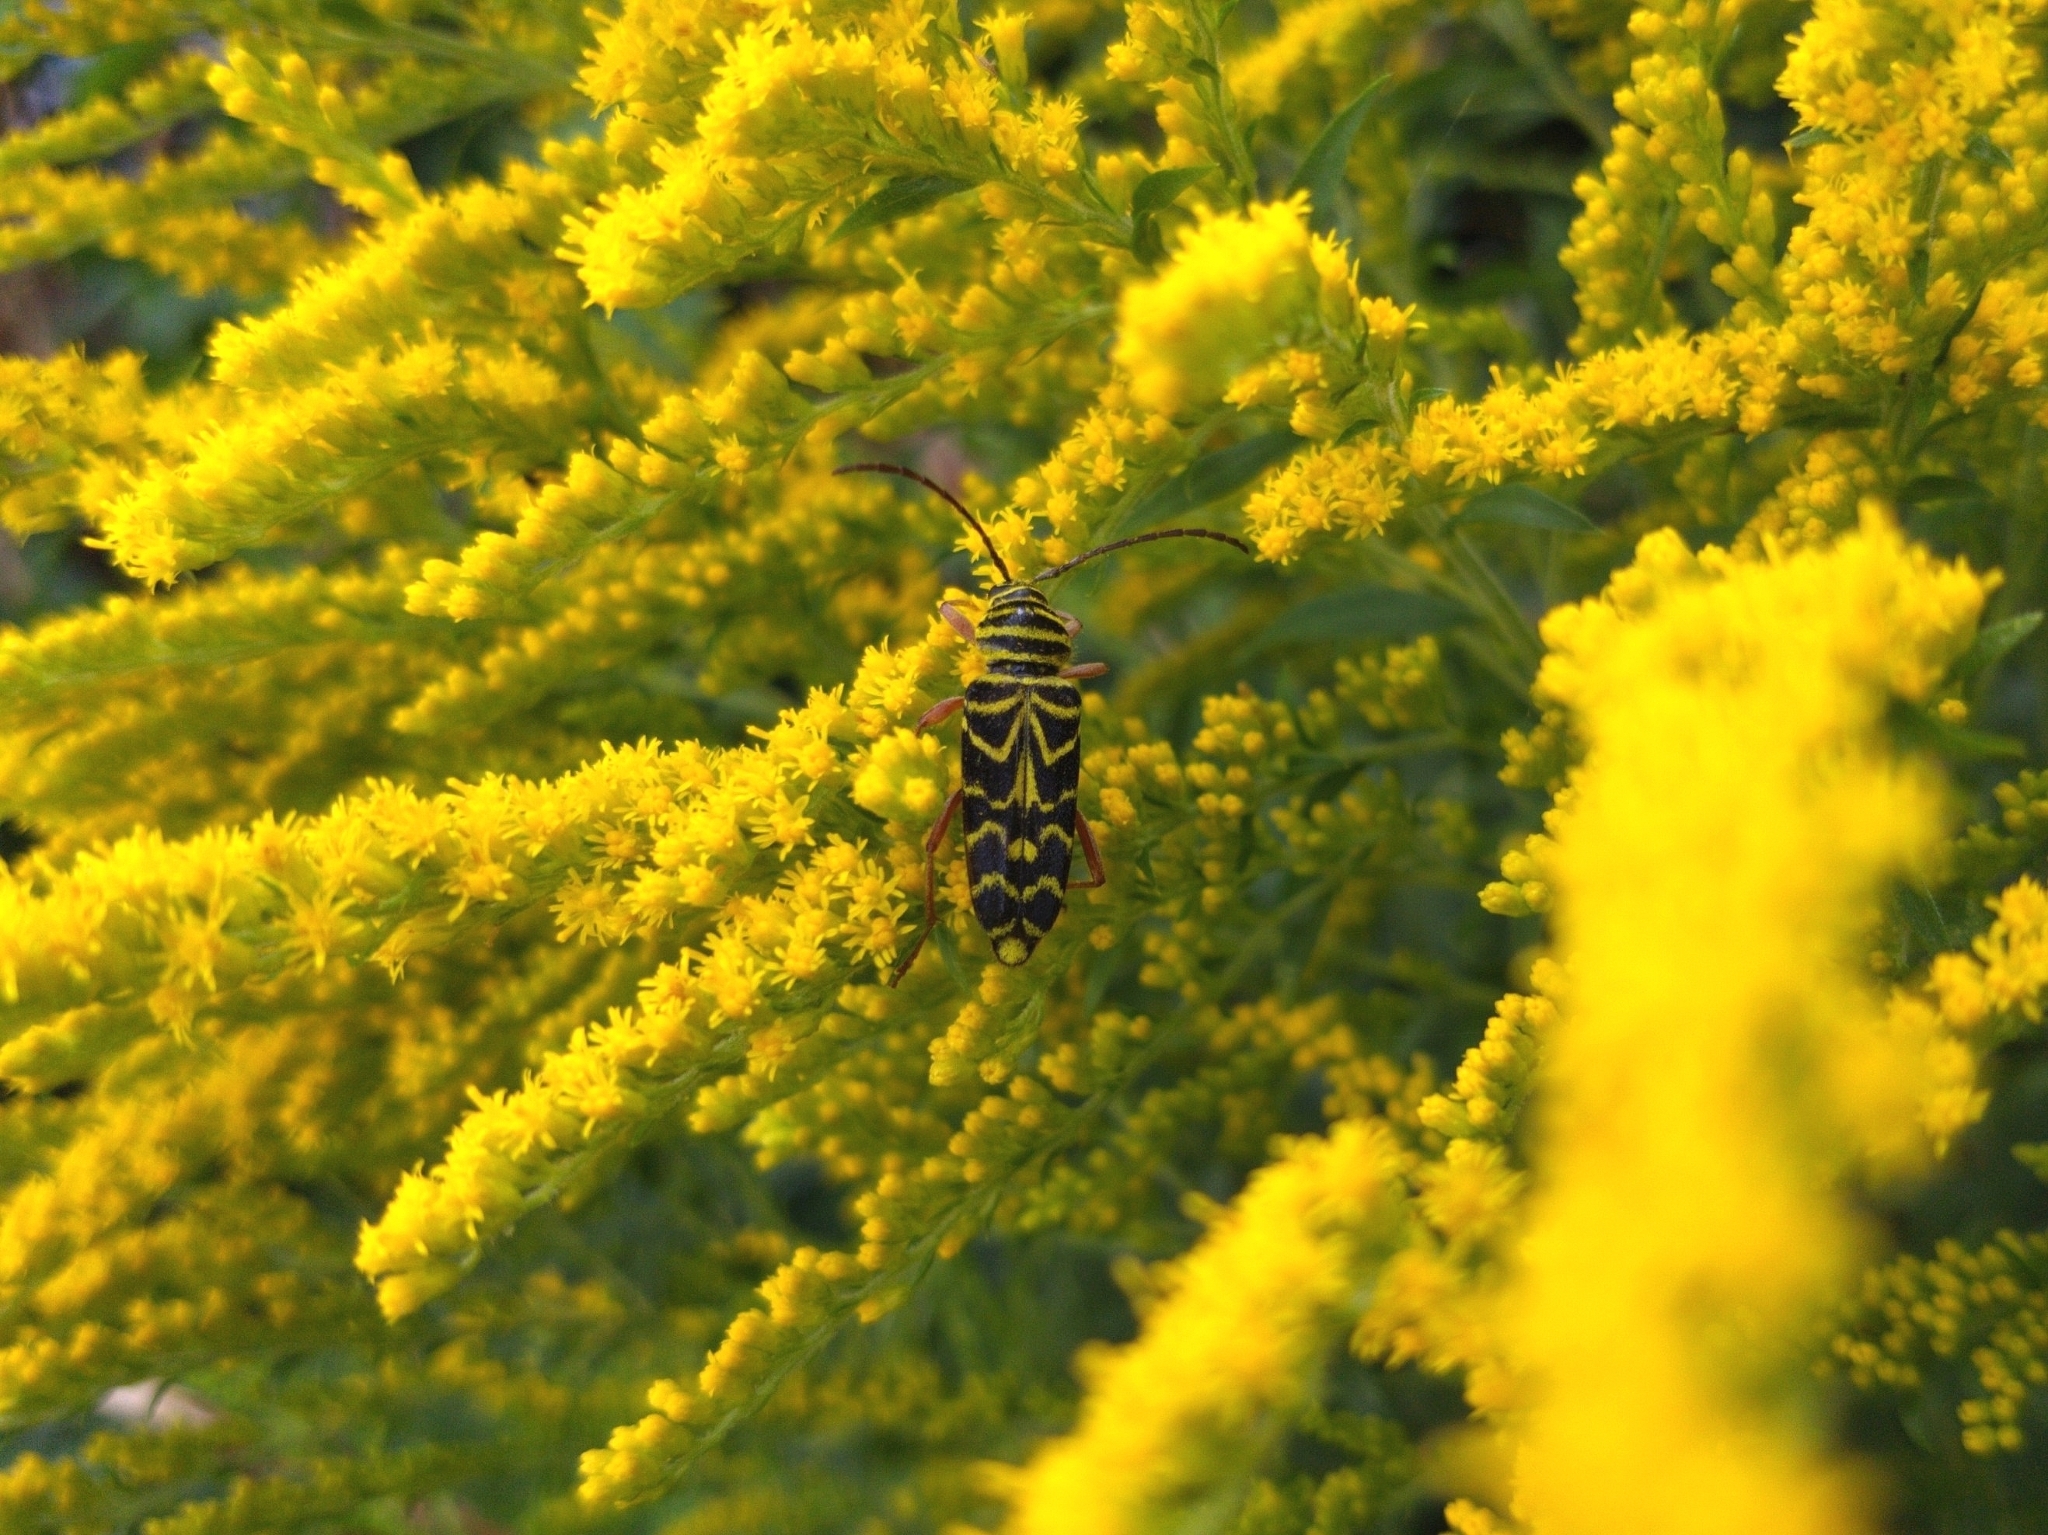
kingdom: Animalia
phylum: Arthropoda
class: Insecta
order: Coleoptera
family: Cerambycidae
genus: Megacyllene
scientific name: Megacyllene robiniae
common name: Locust borer
